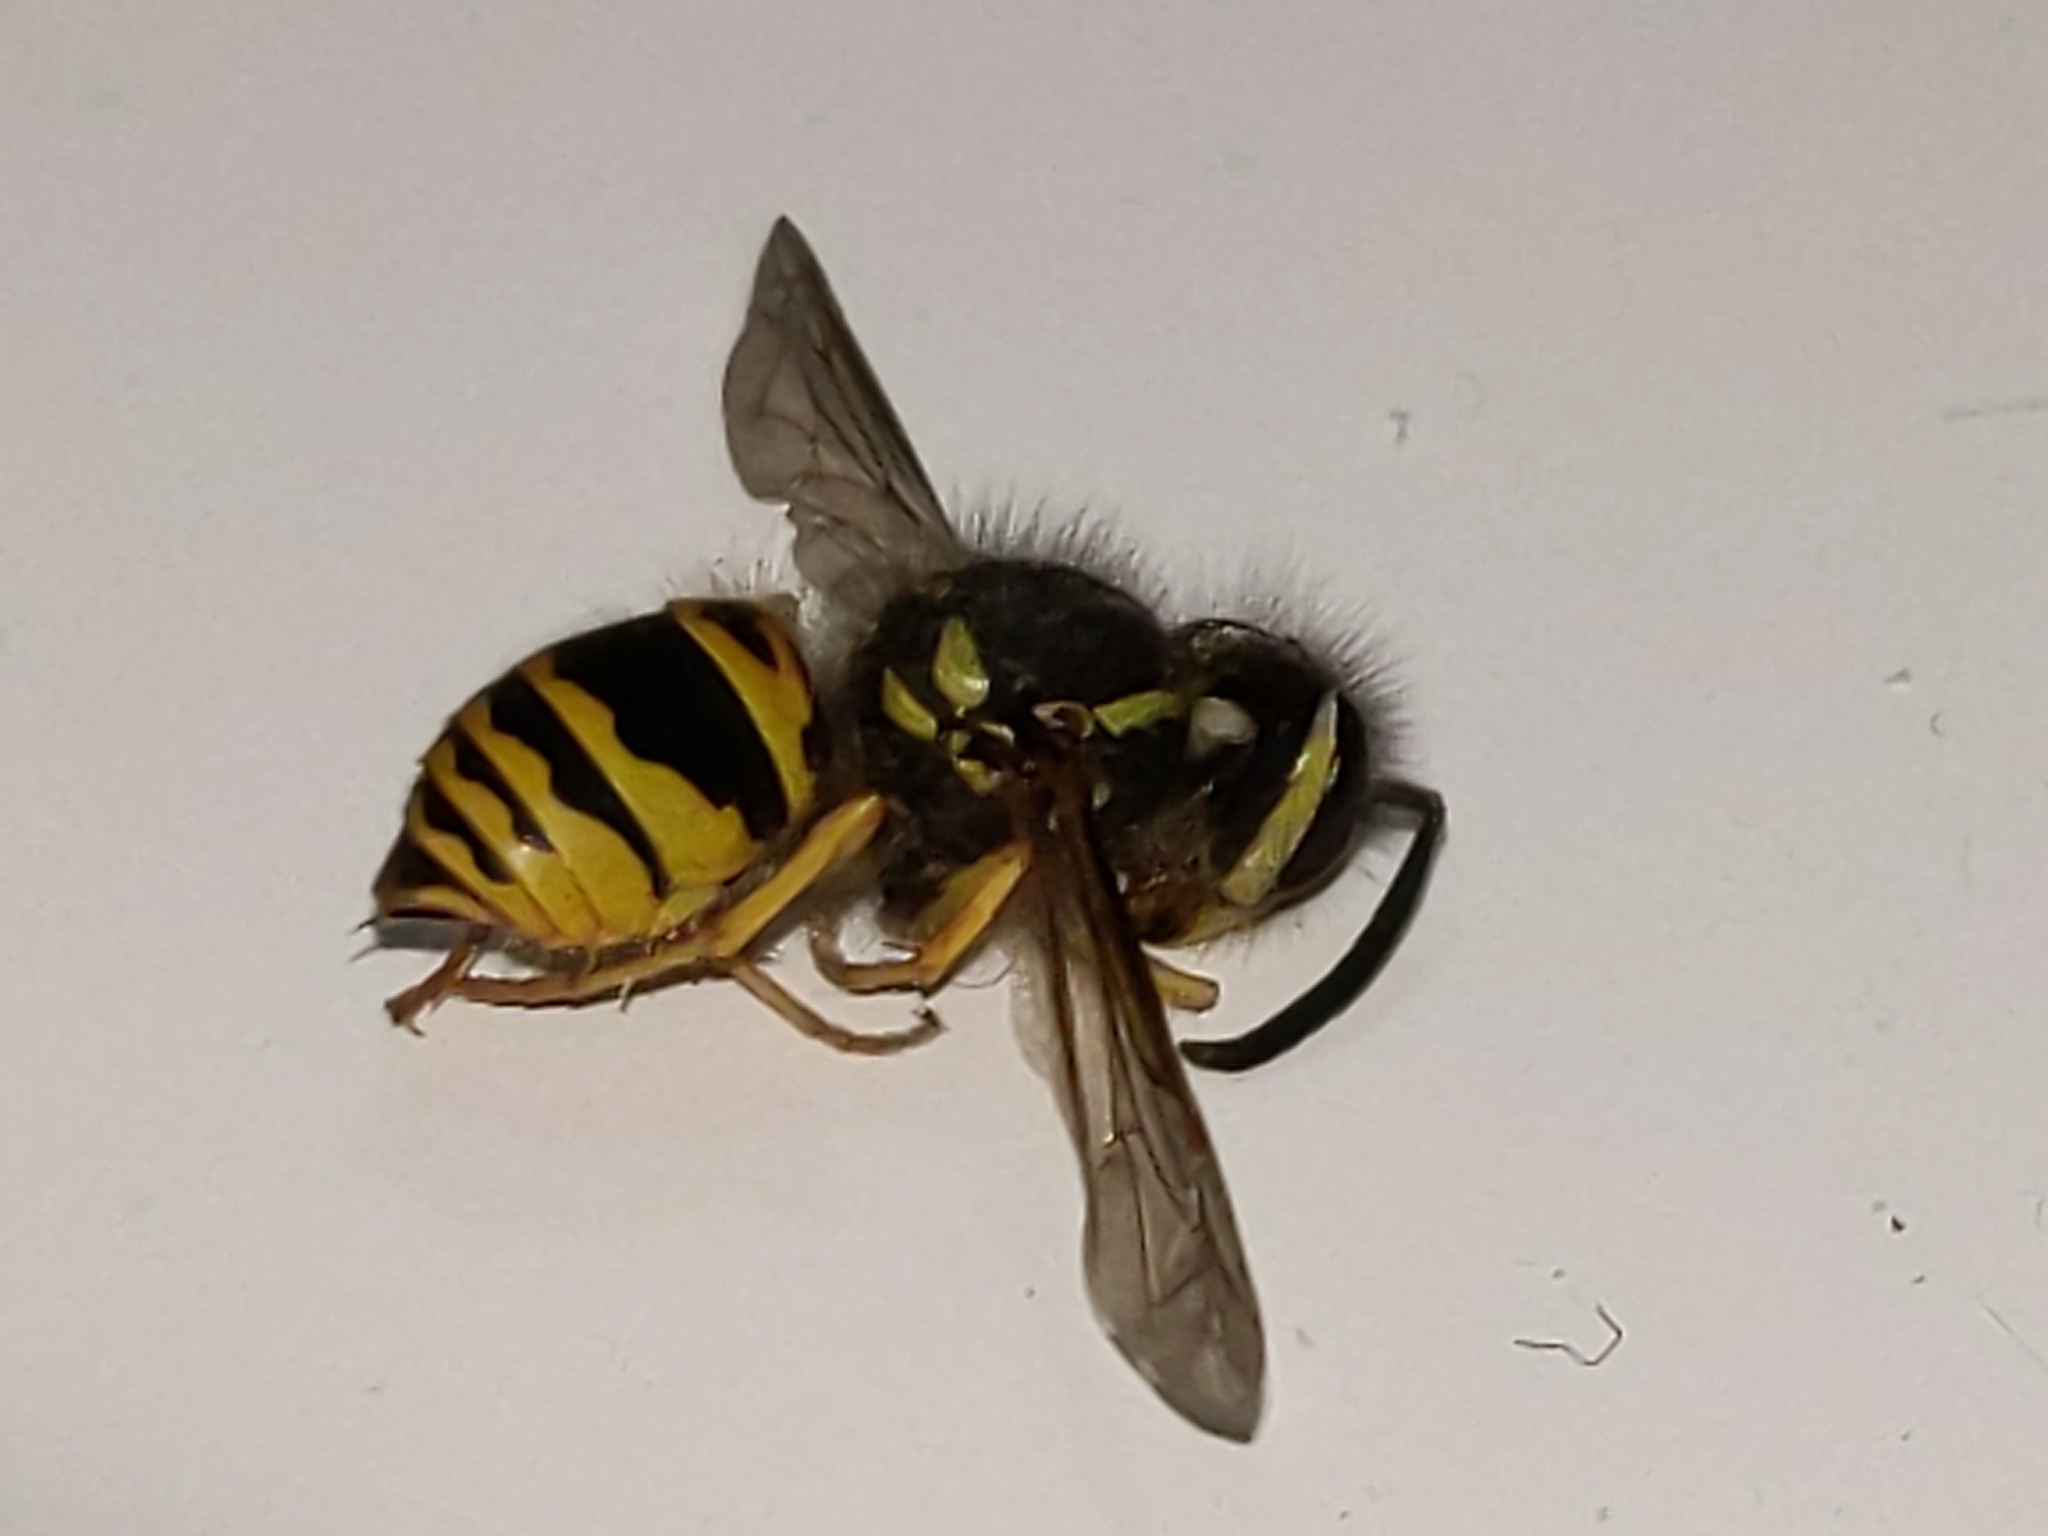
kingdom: Animalia
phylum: Arthropoda
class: Insecta
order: Hymenoptera
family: Vespidae
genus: Vespula
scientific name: Vespula maculifrons
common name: Eastern yellowjacket
